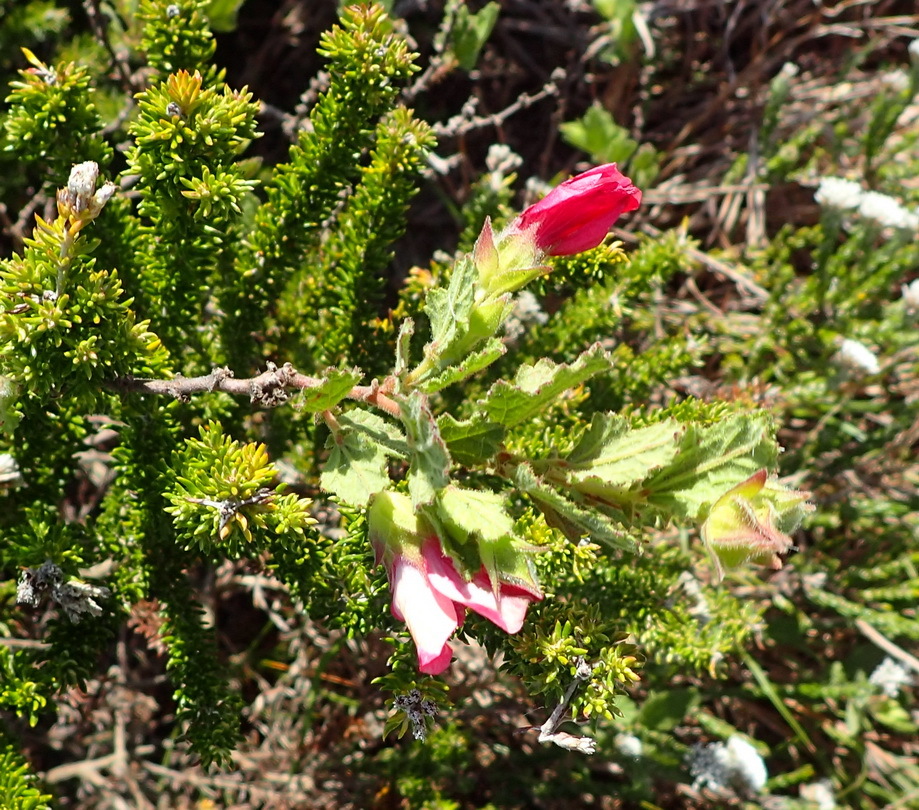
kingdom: Plantae
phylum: Tracheophyta
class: Magnoliopsida
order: Malvales
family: Malvaceae
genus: Anisodontea
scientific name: Anisodontea scabrosa
